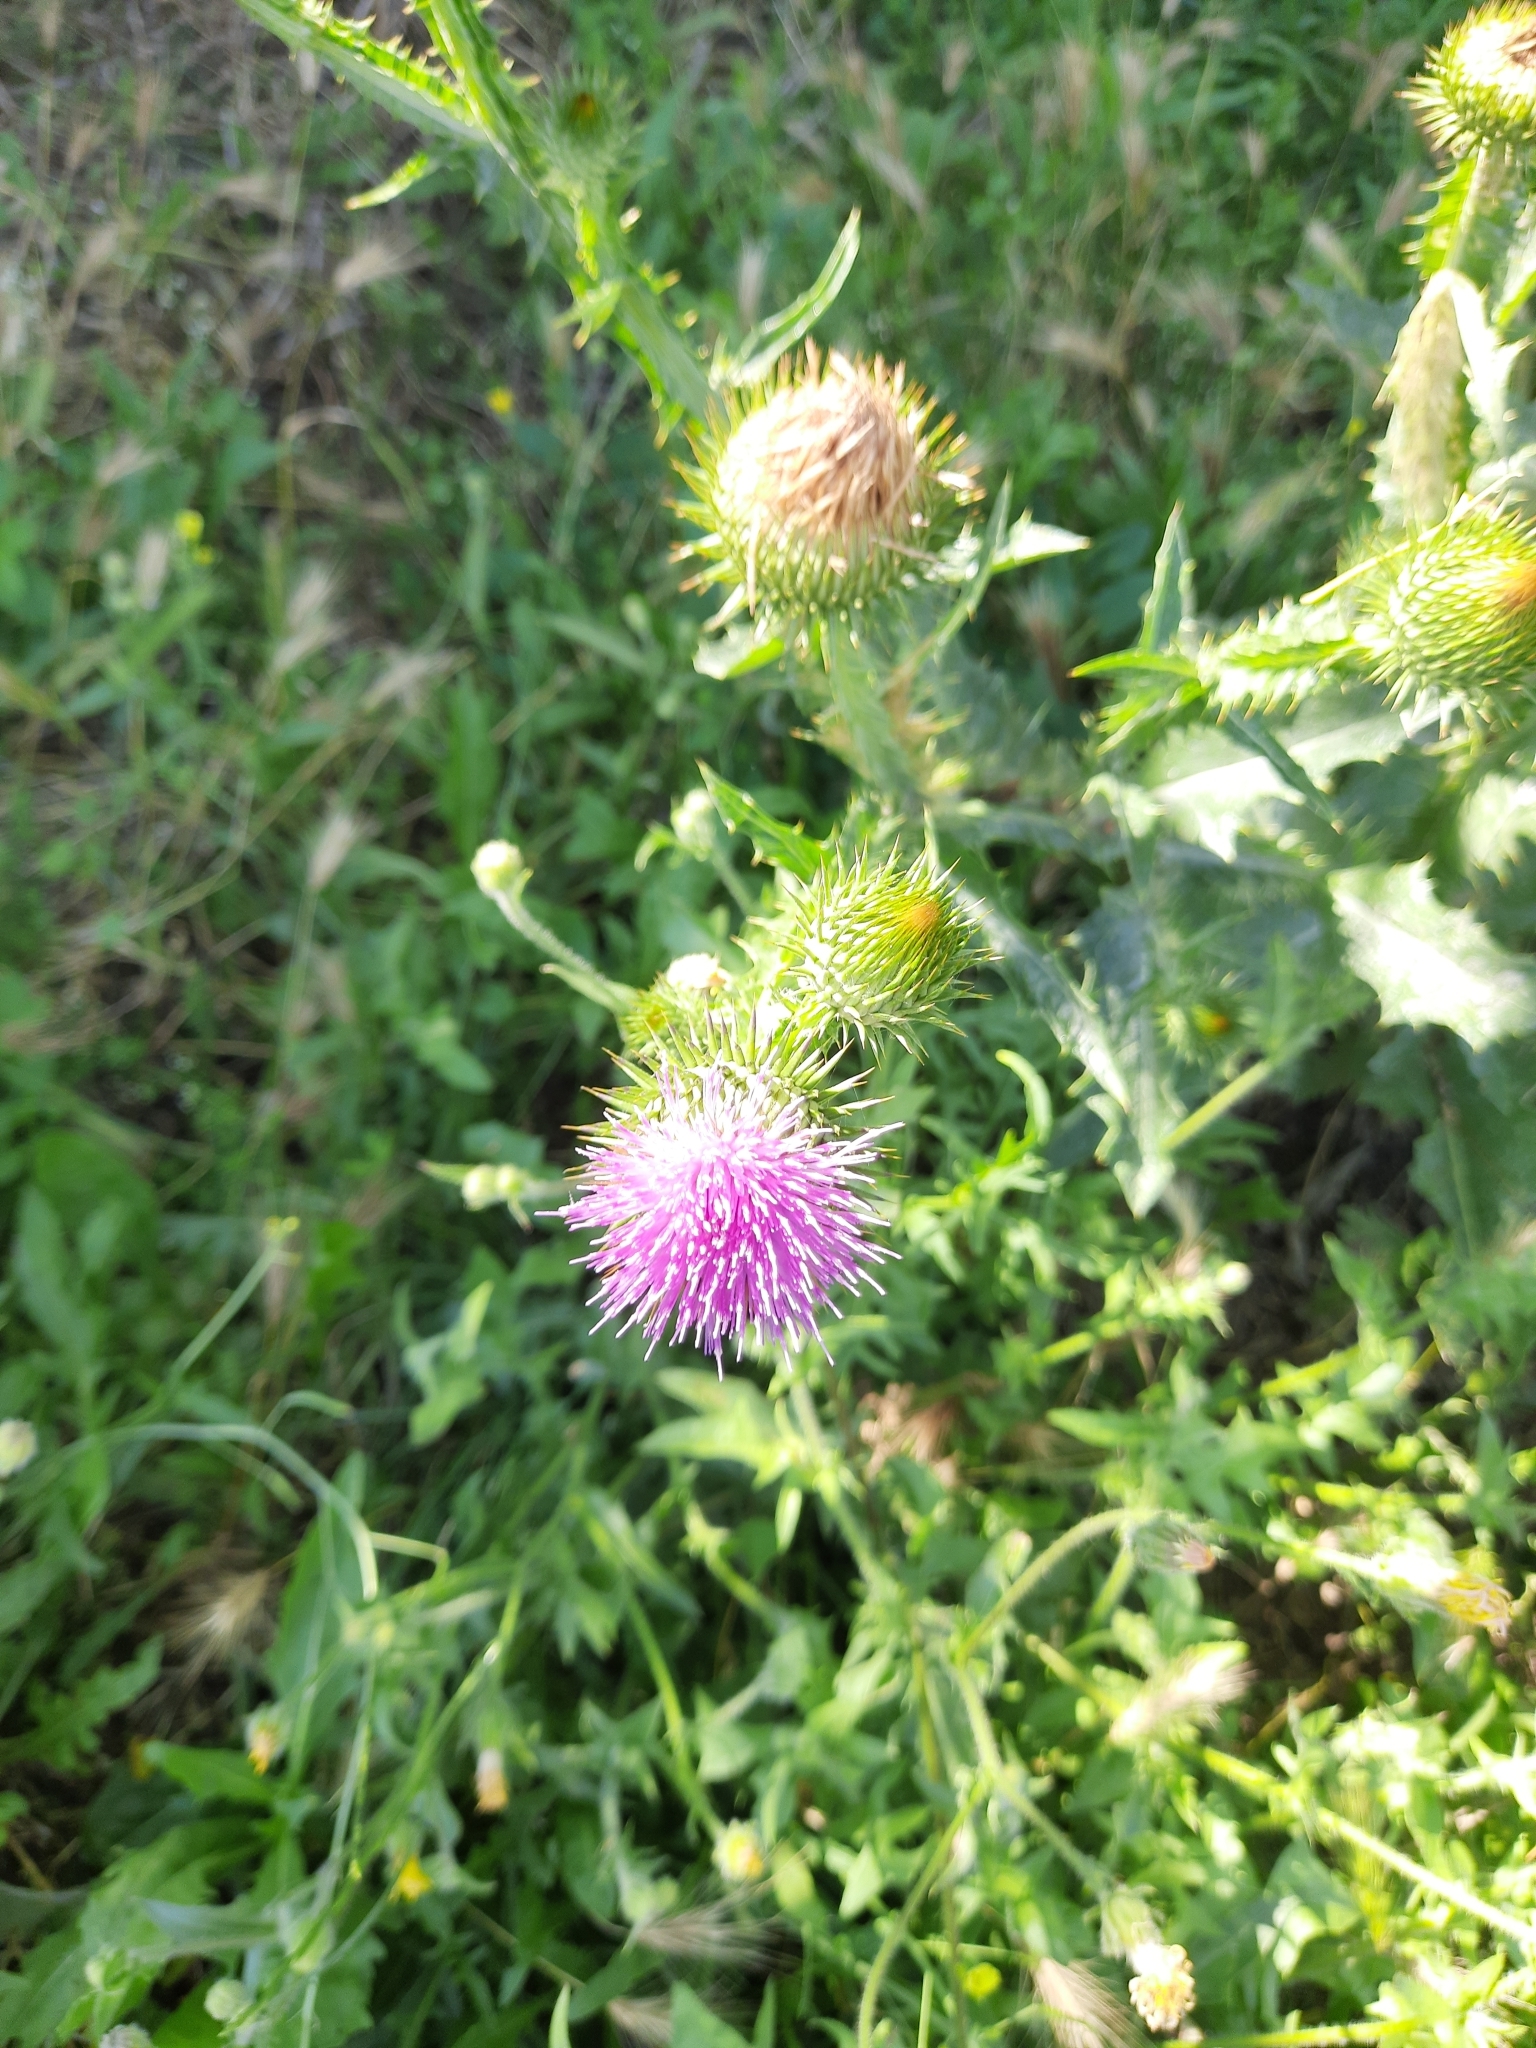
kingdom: Plantae
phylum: Tracheophyta
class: Magnoliopsida
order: Asterales
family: Asteraceae
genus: Onopordum
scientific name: Onopordum acanthium
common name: Scotch thistle
